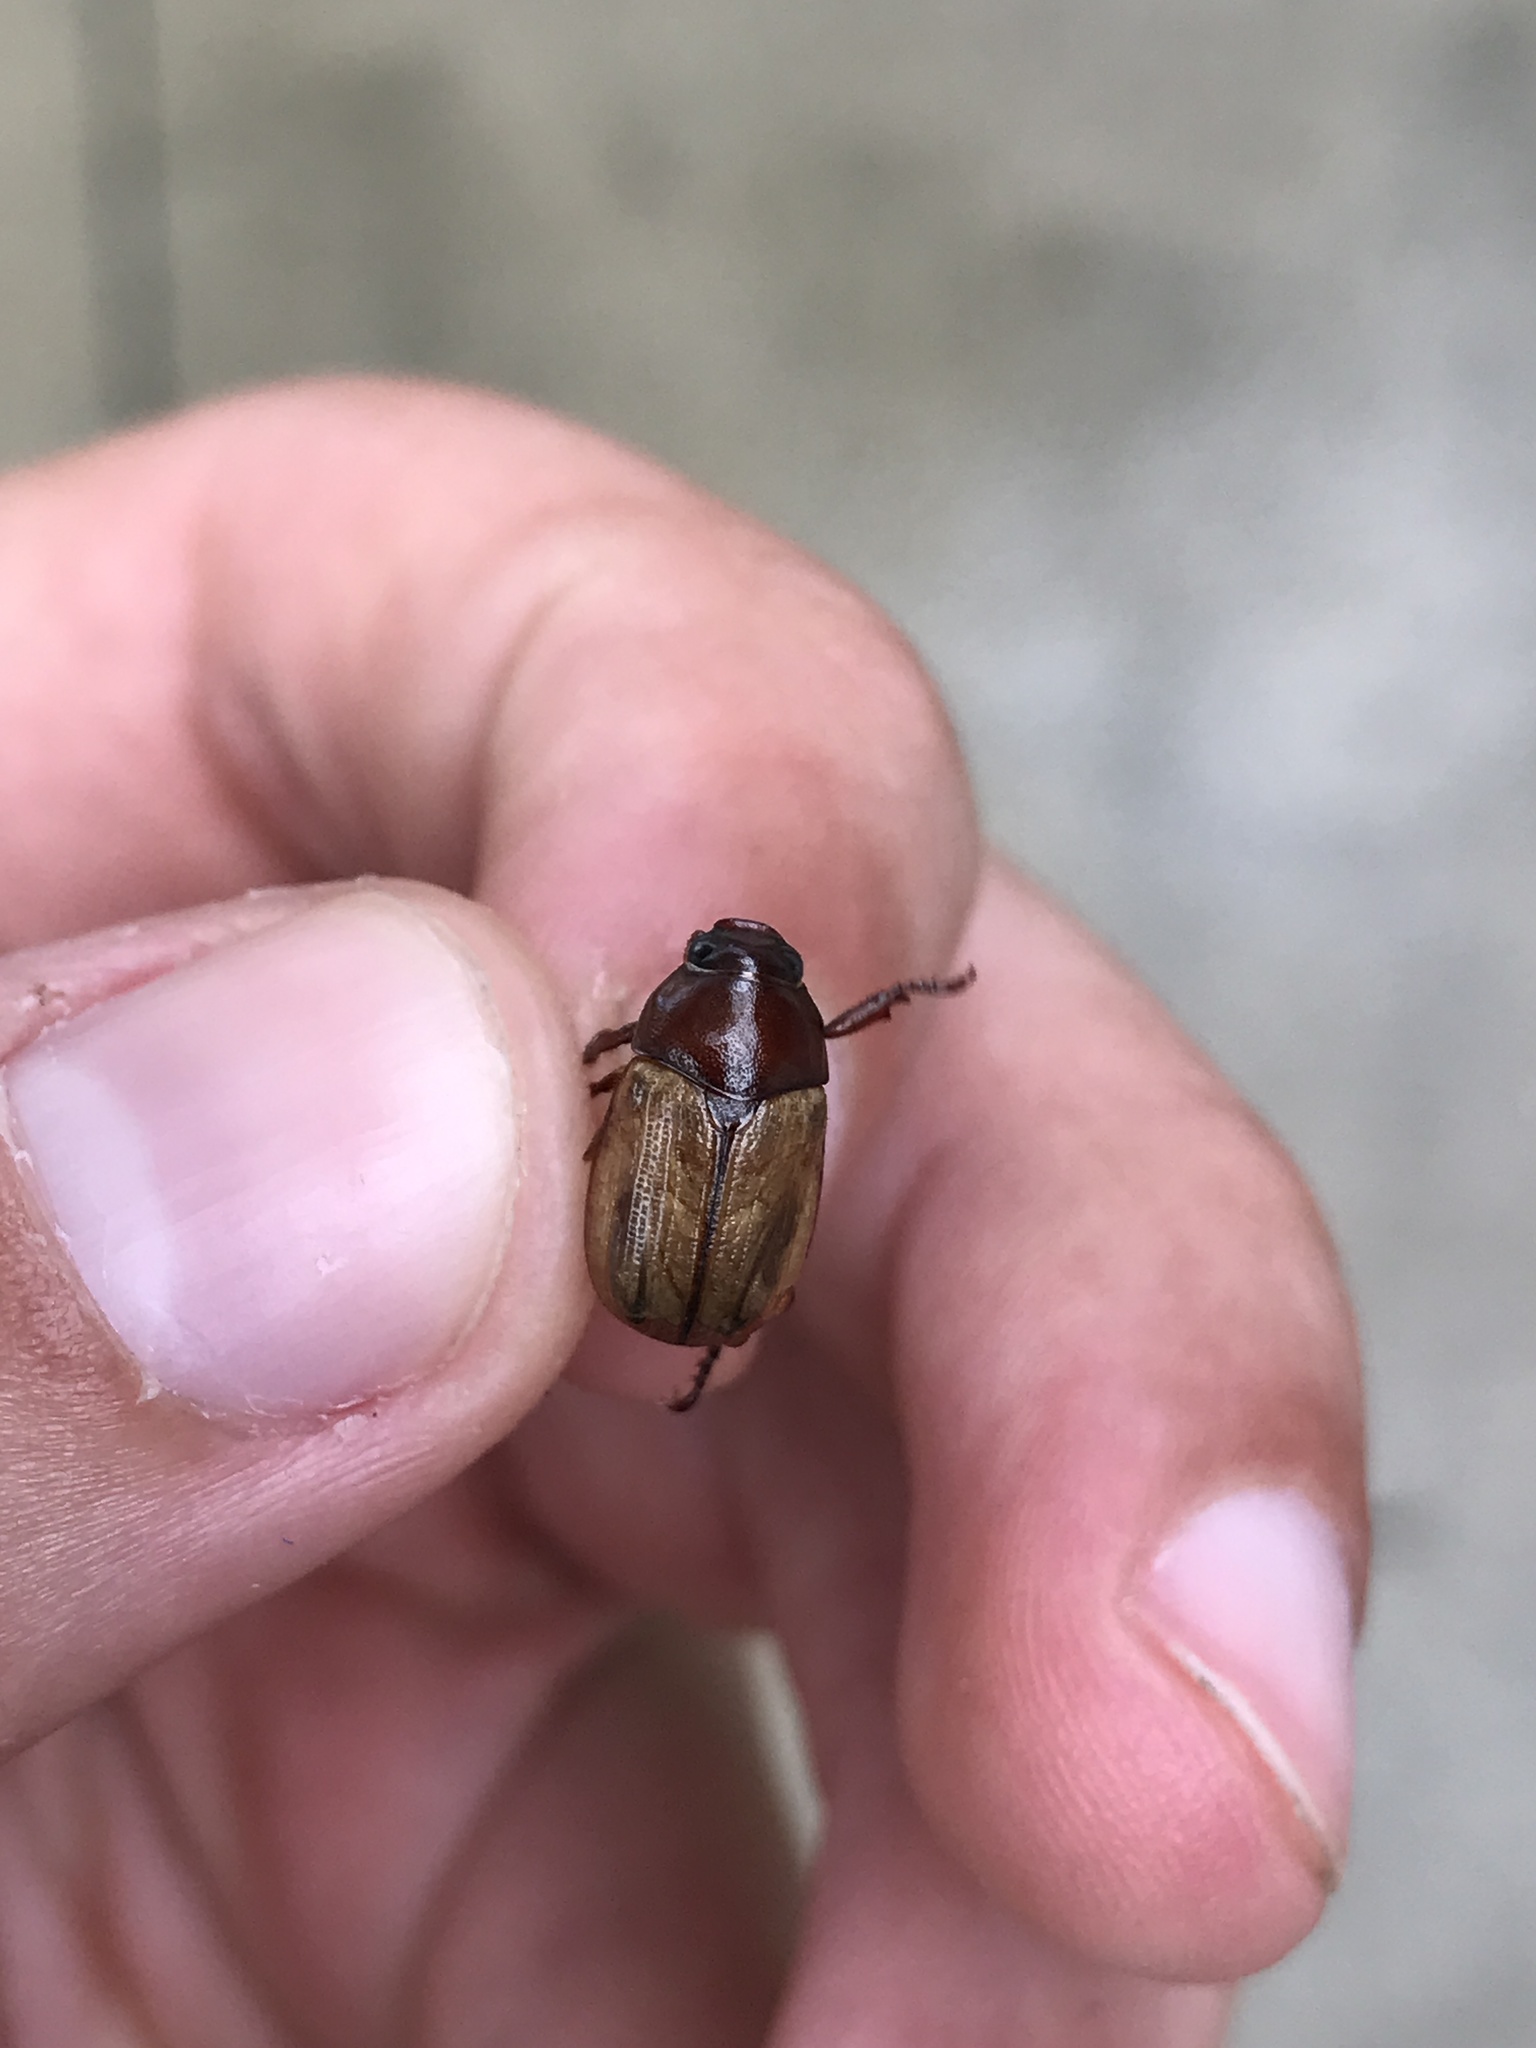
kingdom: Animalia
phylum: Arthropoda
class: Insecta
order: Coleoptera
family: Scarabaeidae
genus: Paranomala
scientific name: Paranomala flavipennis
